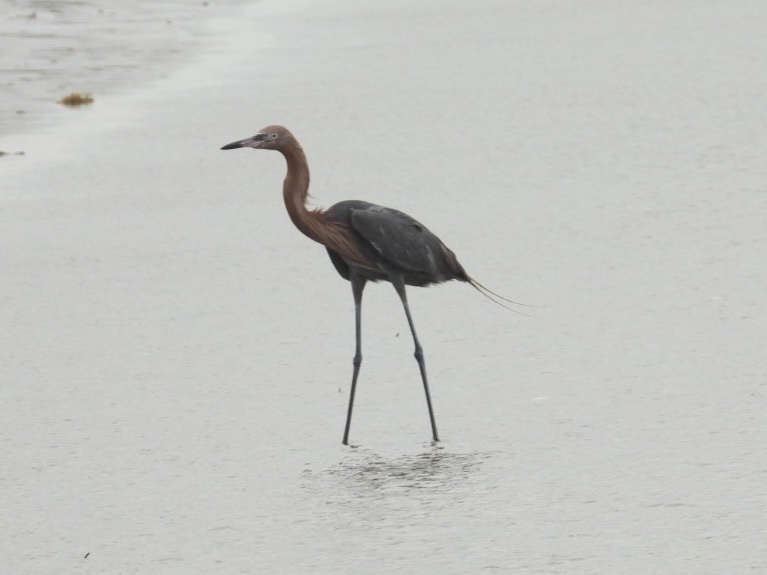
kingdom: Animalia
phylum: Chordata
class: Aves
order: Pelecaniformes
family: Ardeidae
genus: Egretta
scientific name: Egretta rufescens
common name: Reddish egret
